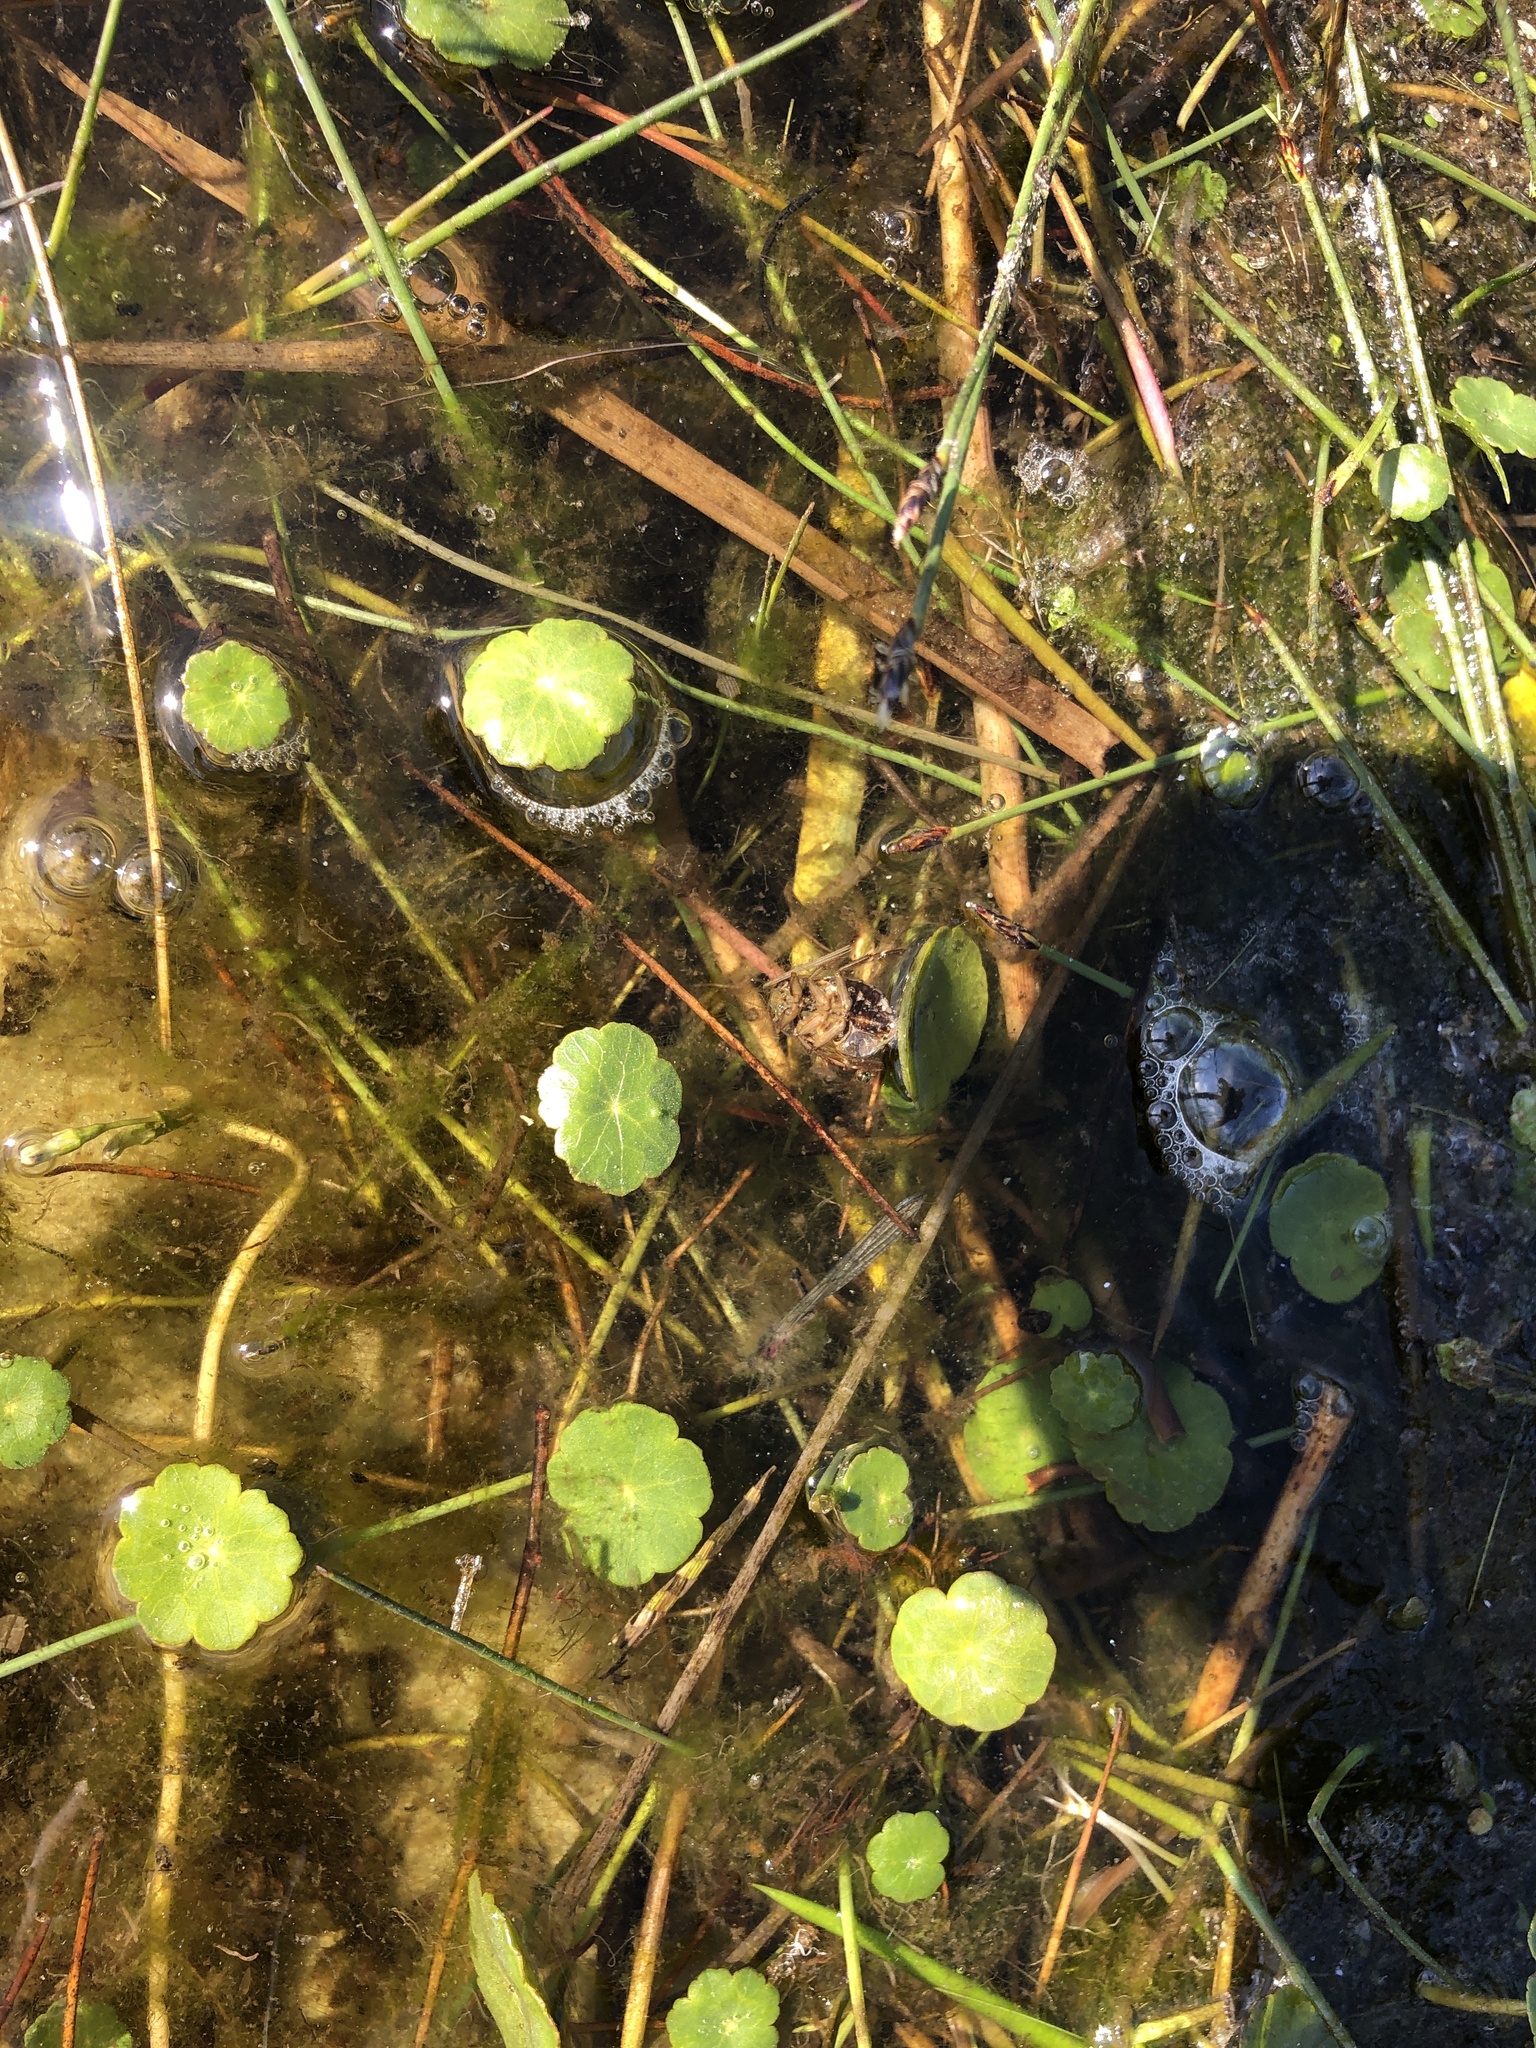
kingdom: Plantae
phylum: Tracheophyta
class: Magnoliopsida
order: Apiales
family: Araliaceae
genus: Hydrocotyle
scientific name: Hydrocotyle vulgaris
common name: Marsh pennywort
